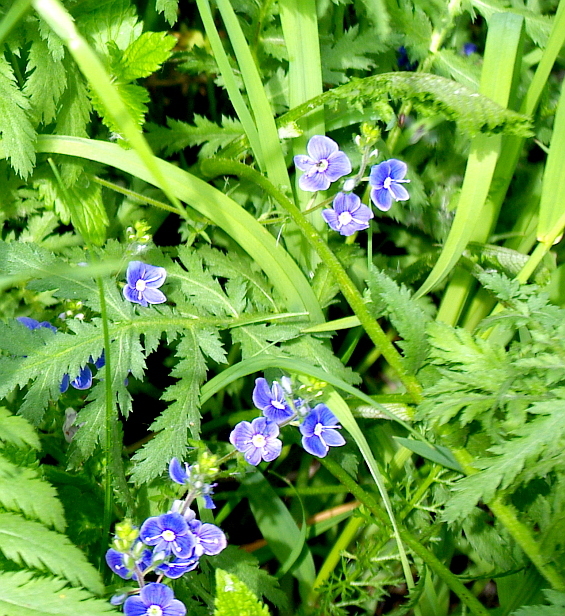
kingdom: Plantae
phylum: Tracheophyta
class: Magnoliopsida
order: Lamiales
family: Plantaginaceae
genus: Veronica
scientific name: Veronica chamaedrys
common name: Germander speedwell
